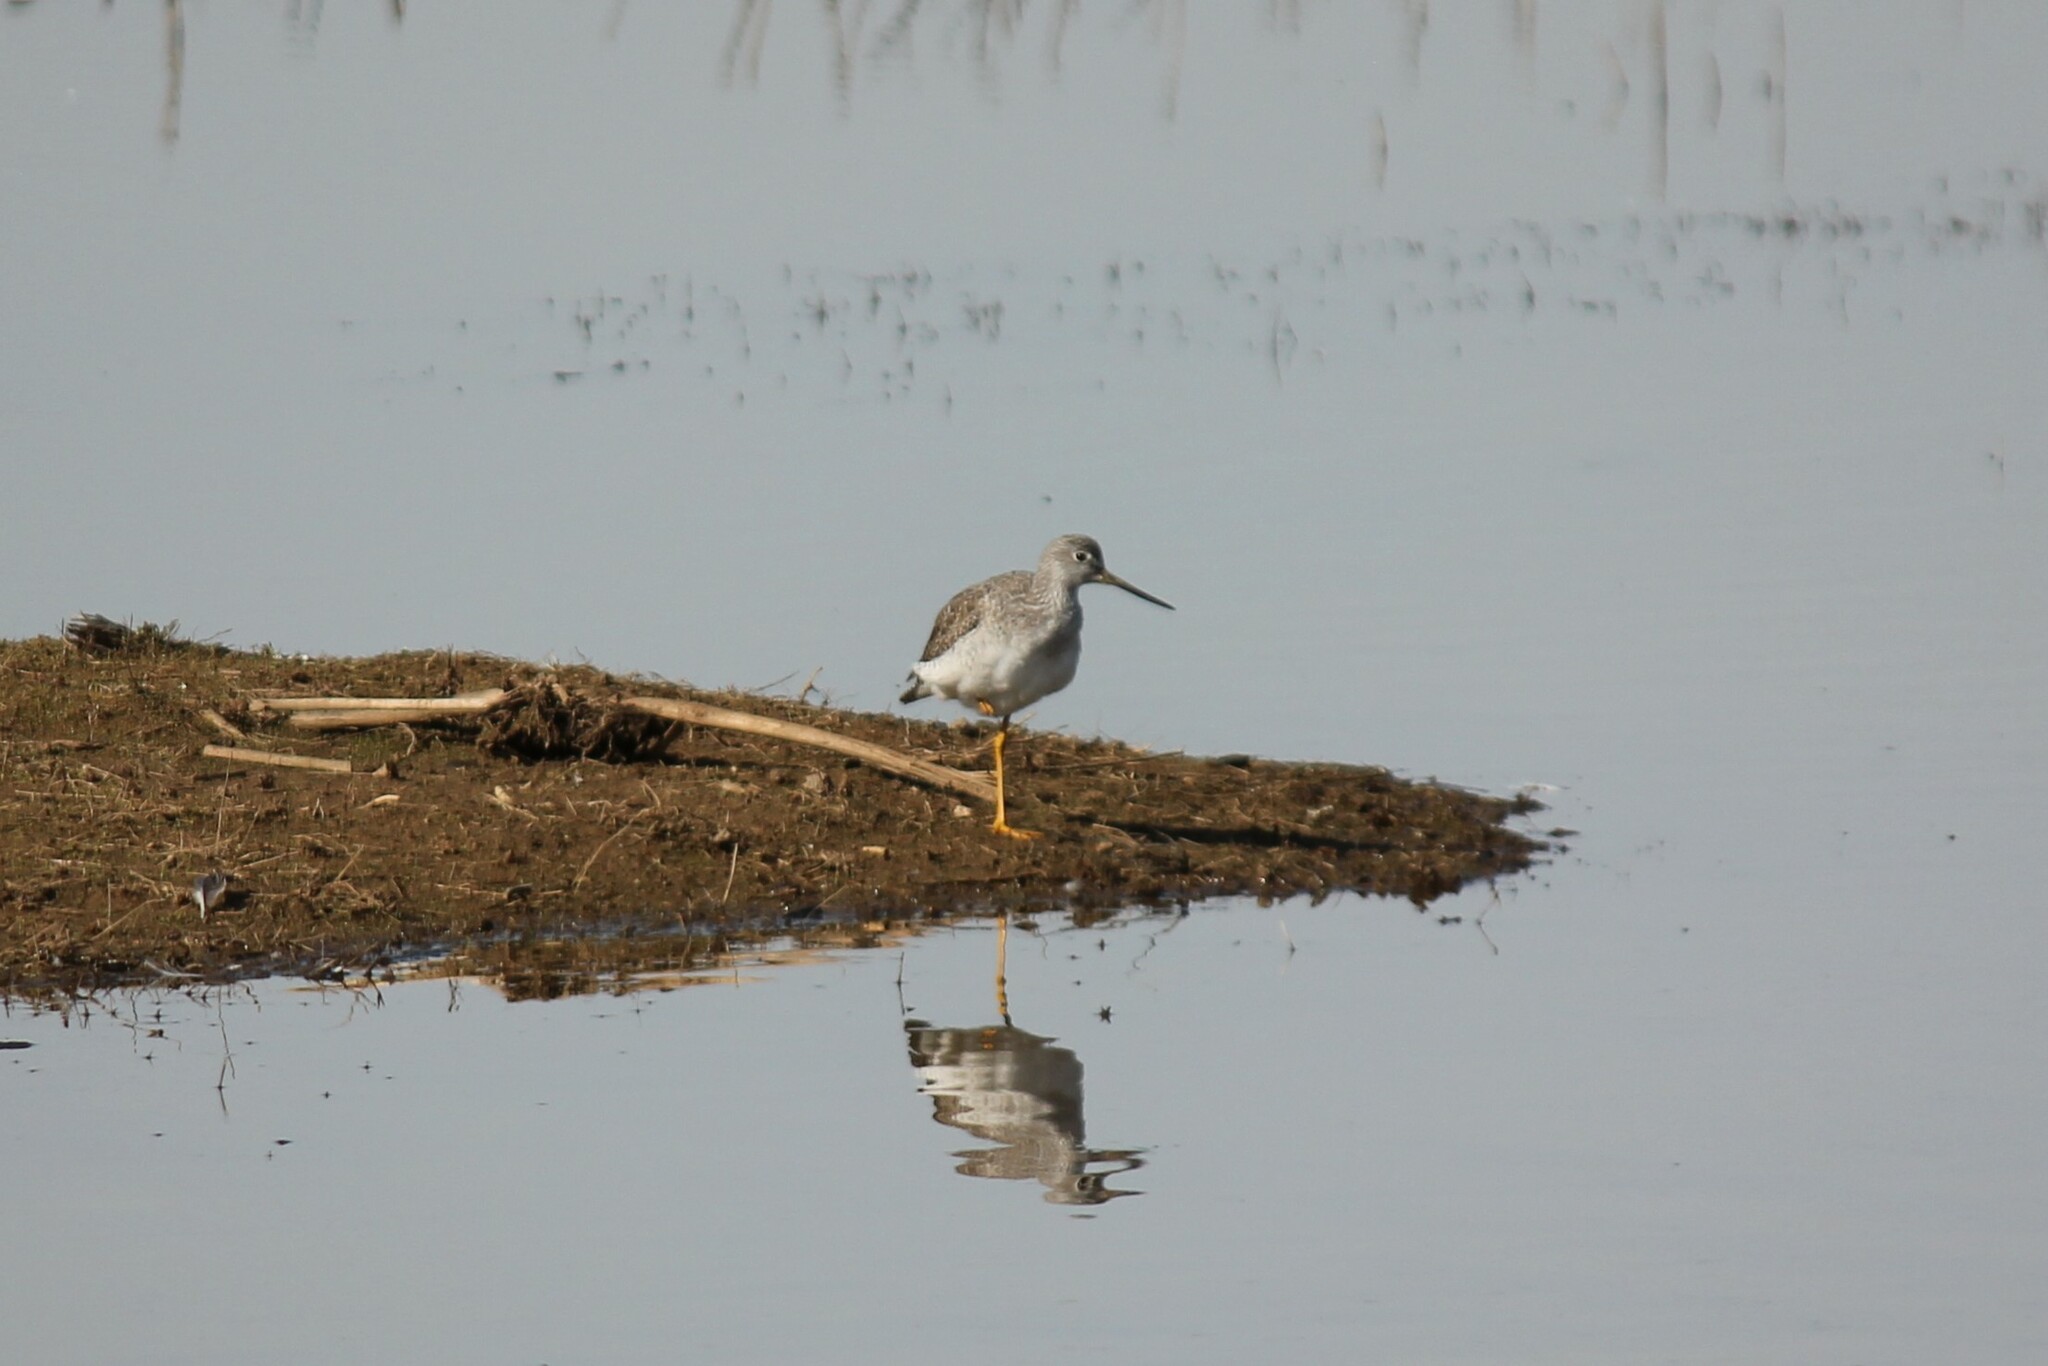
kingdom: Animalia
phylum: Chordata
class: Aves
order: Charadriiformes
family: Scolopacidae
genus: Tringa
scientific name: Tringa melanoleuca
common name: Greater yellowlegs
